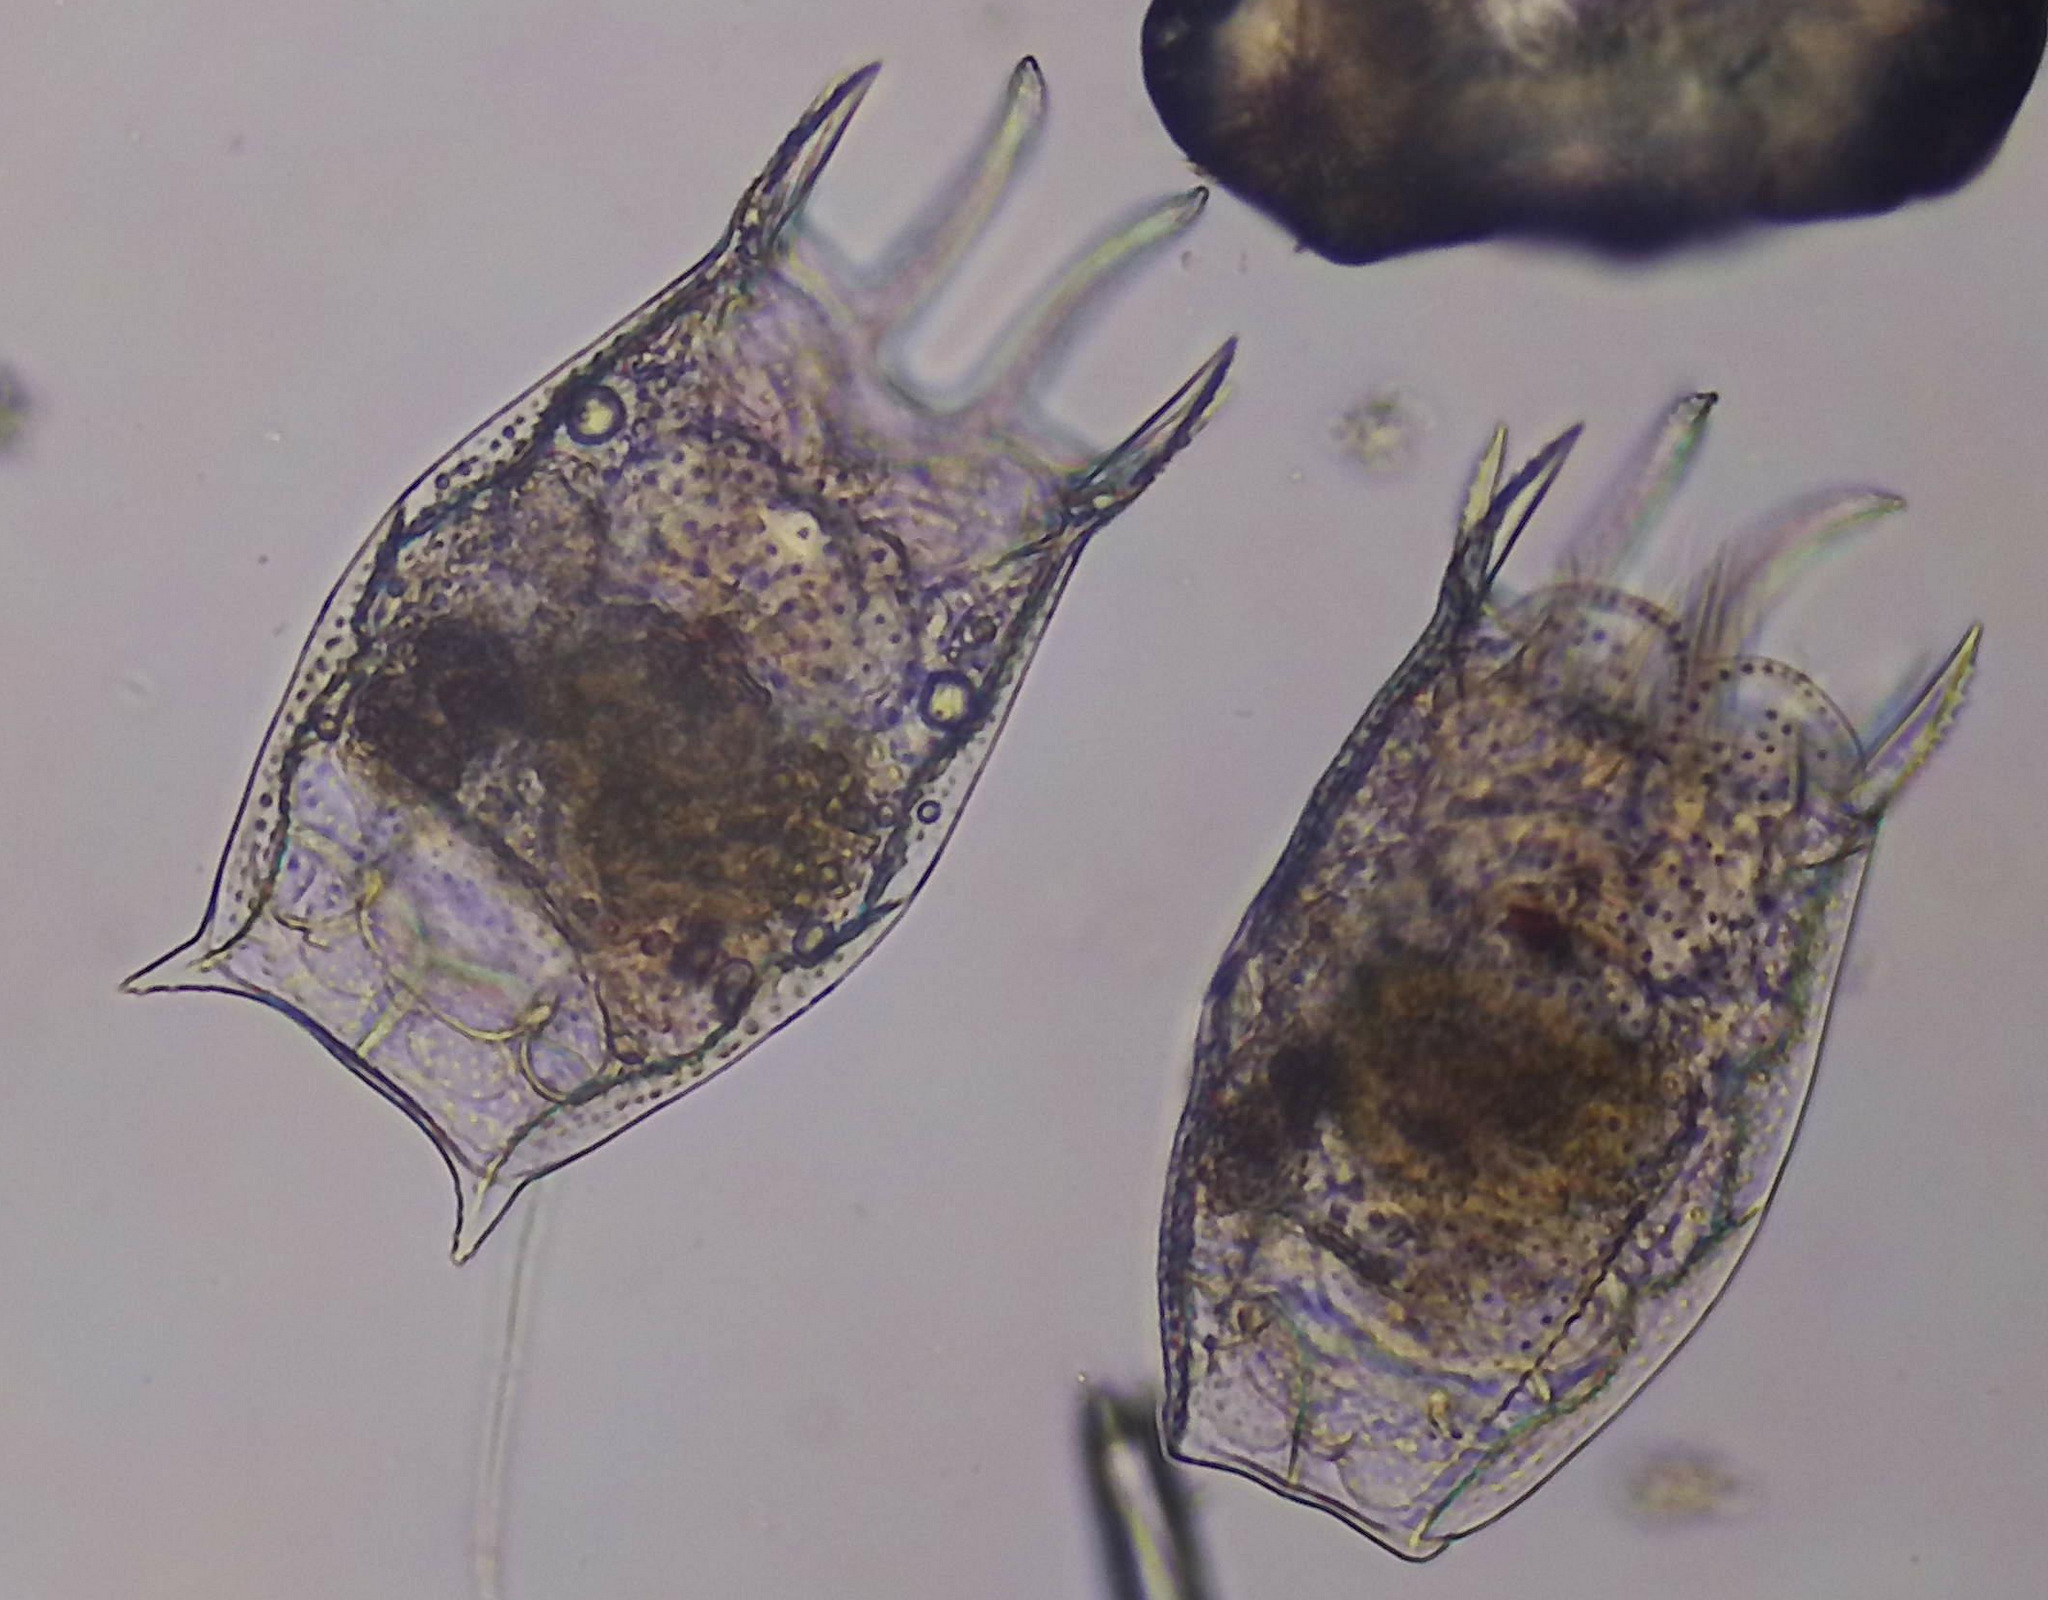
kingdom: Animalia
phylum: Rotifera
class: Eurotatoria
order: Ploima
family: Brachionidae
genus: Keratella
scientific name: Keratella serrulata
